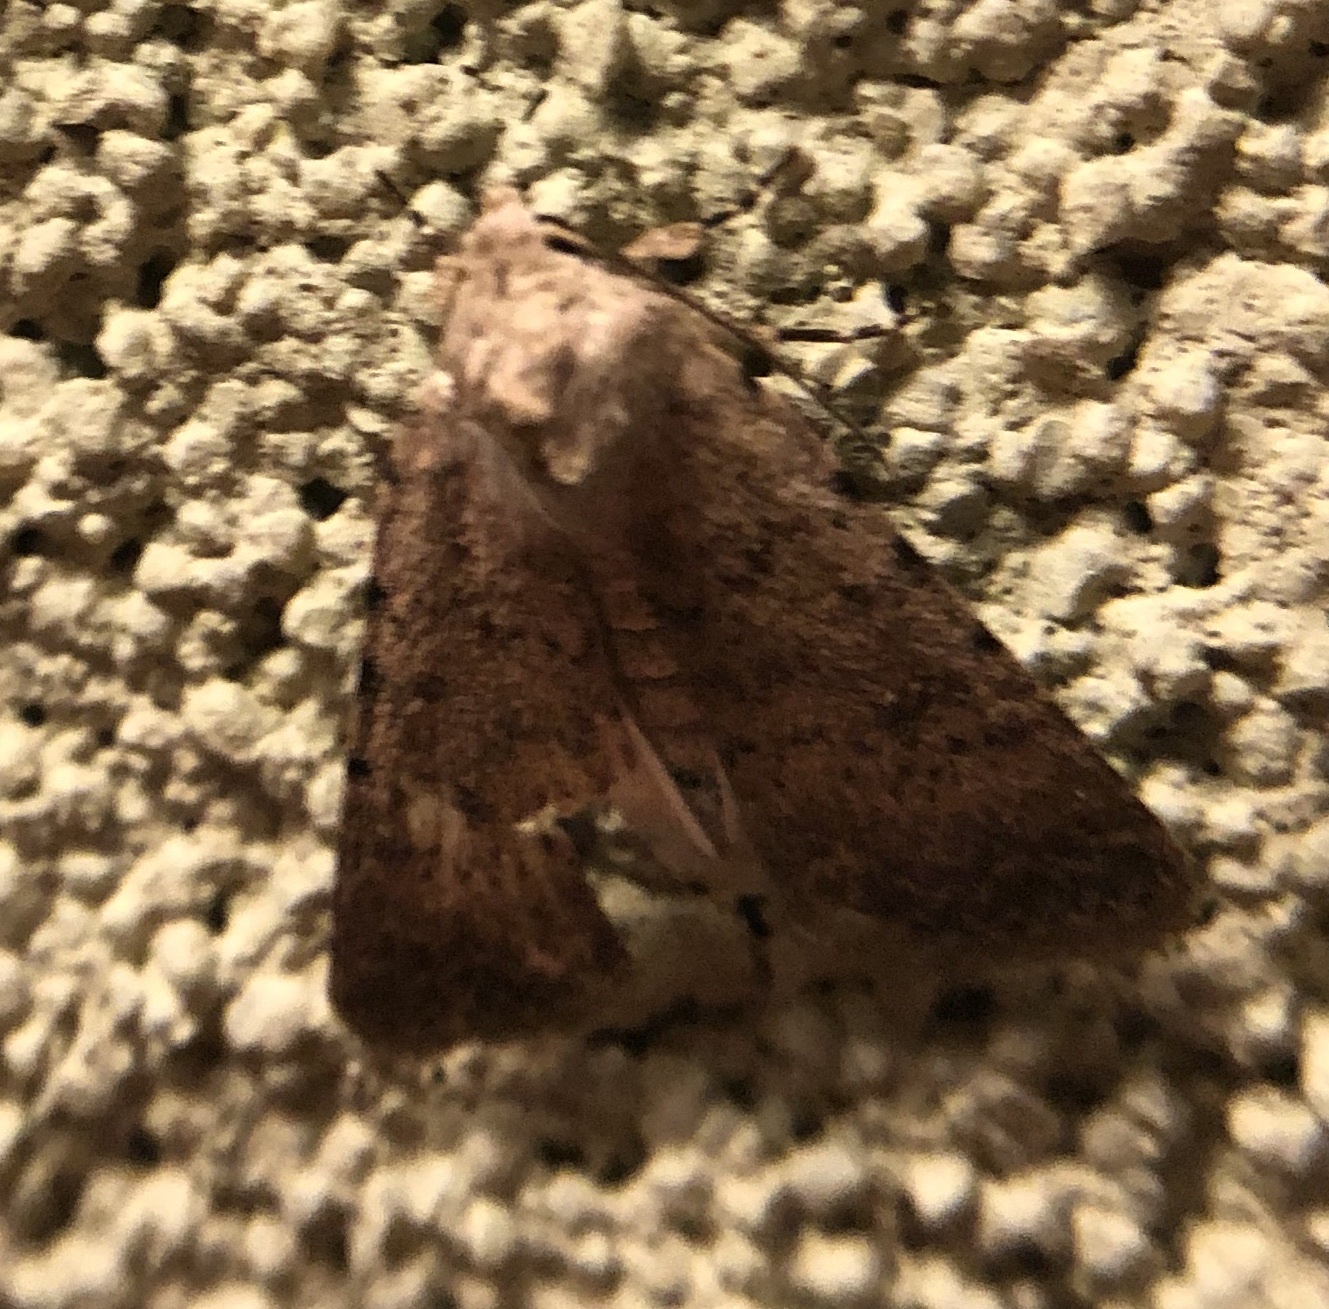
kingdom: Animalia
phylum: Arthropoda
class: Insecta
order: Lepidoptera
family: Noctuidae
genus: Caradrina
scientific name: Caradrina clavipalpis
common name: Pale mottled willow
